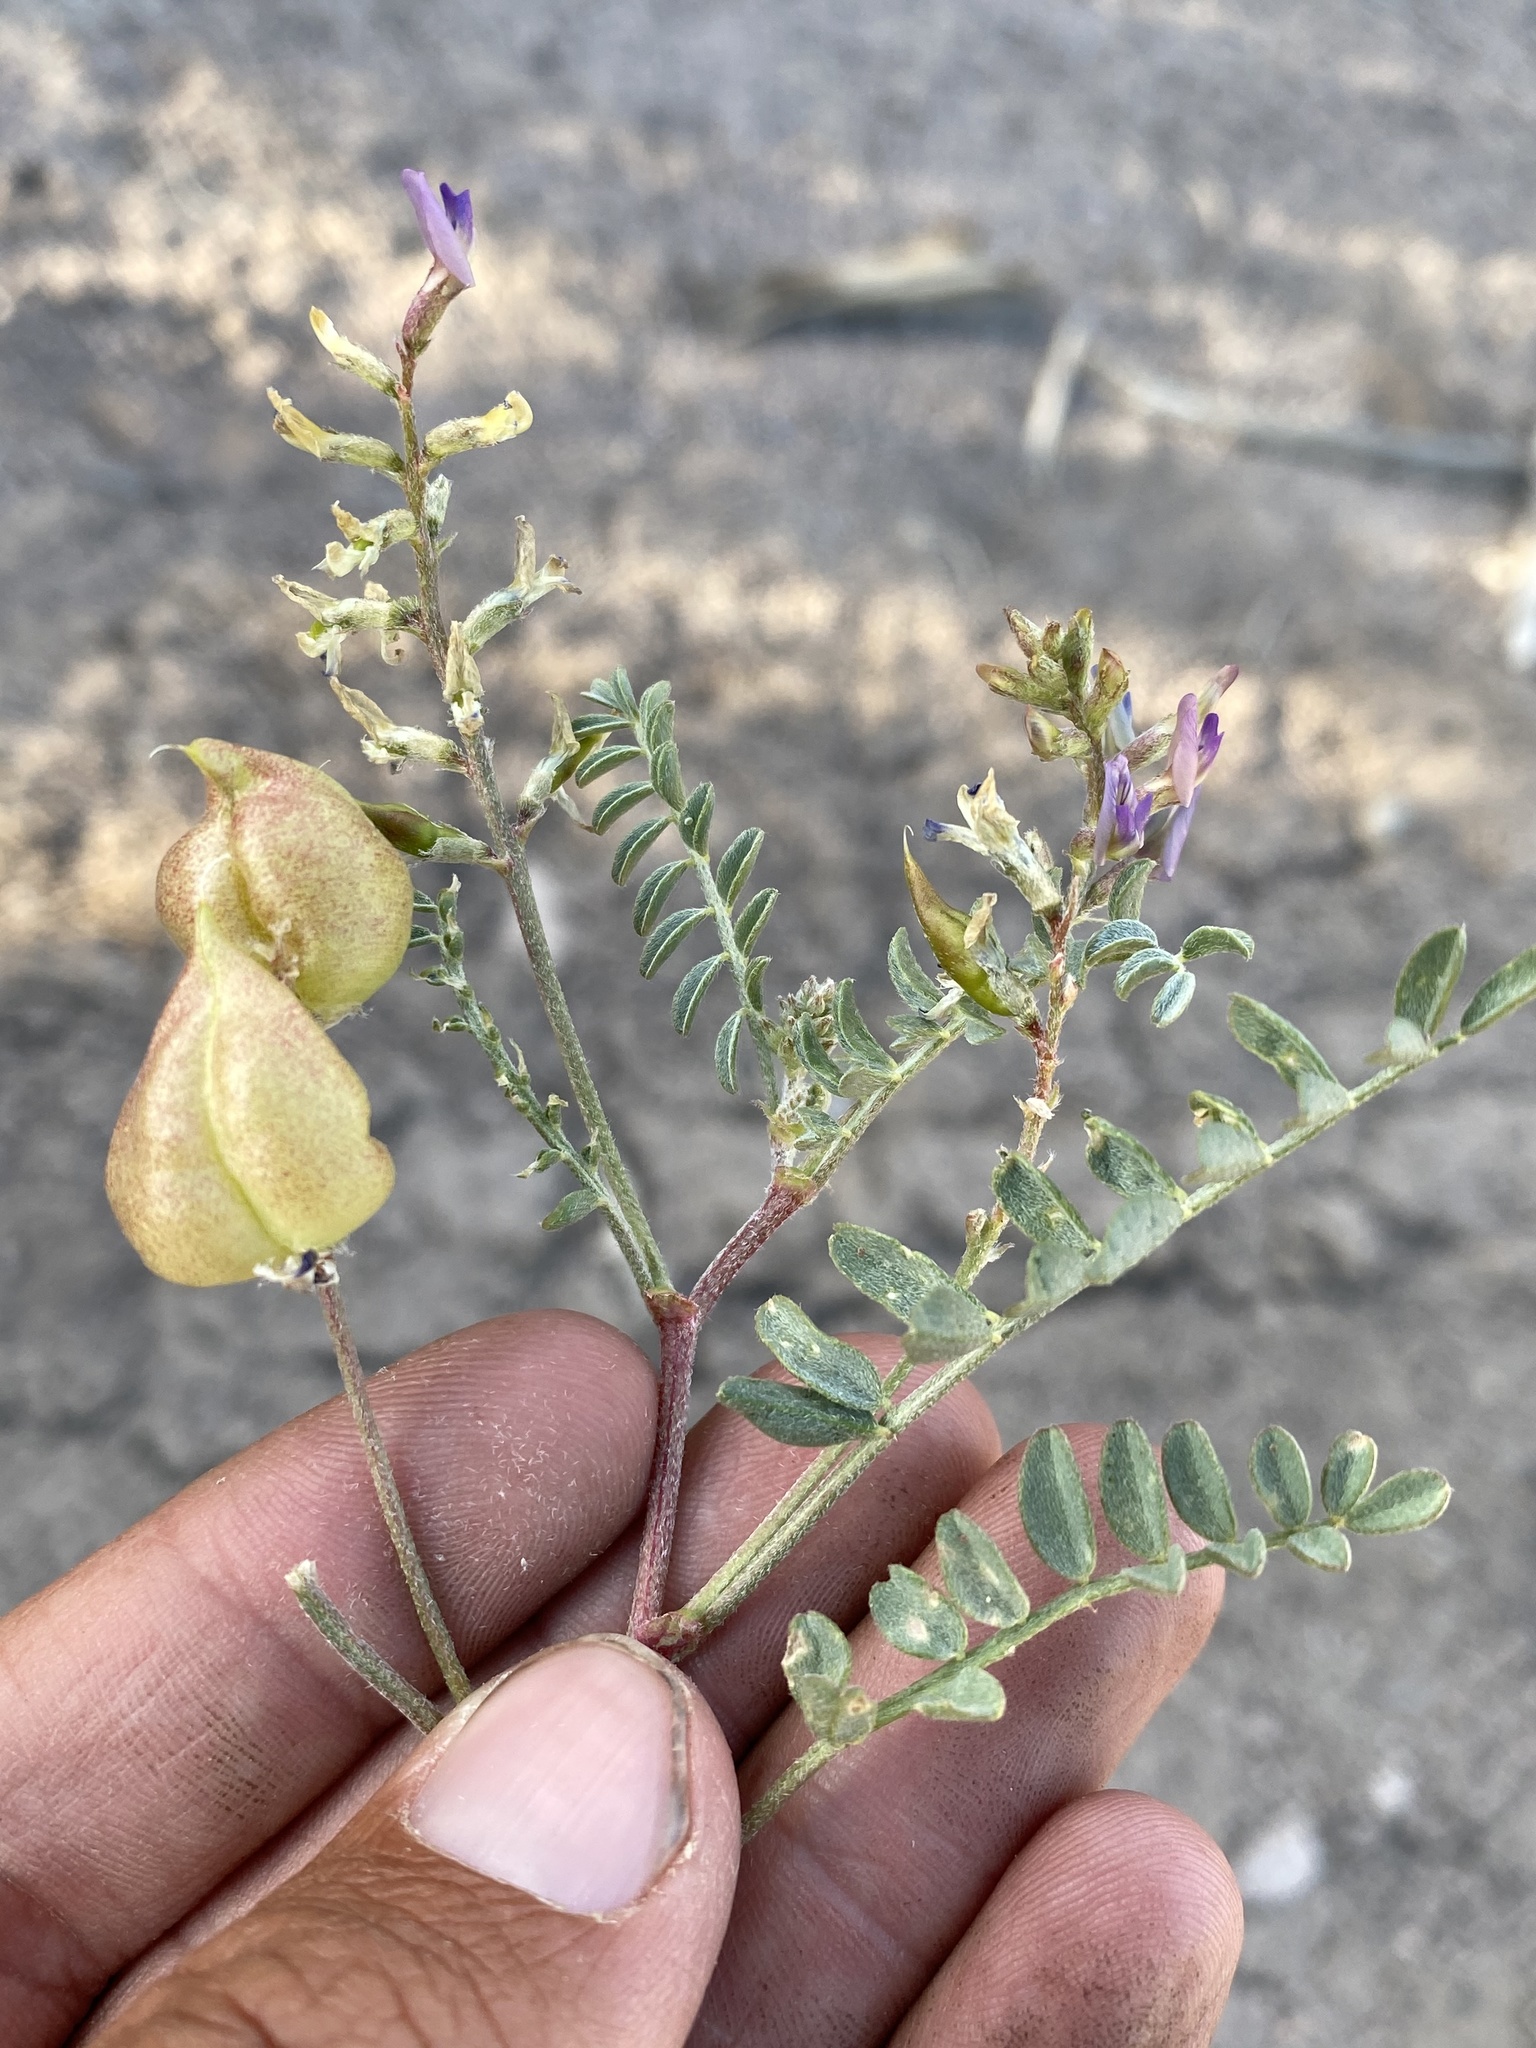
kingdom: Plantae
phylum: Tracheophyta
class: Magnoliopsida
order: Fabales
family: Fabaceae
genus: Astragalus
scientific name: Astragalus lentiginosus
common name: Freckled milkvetch
